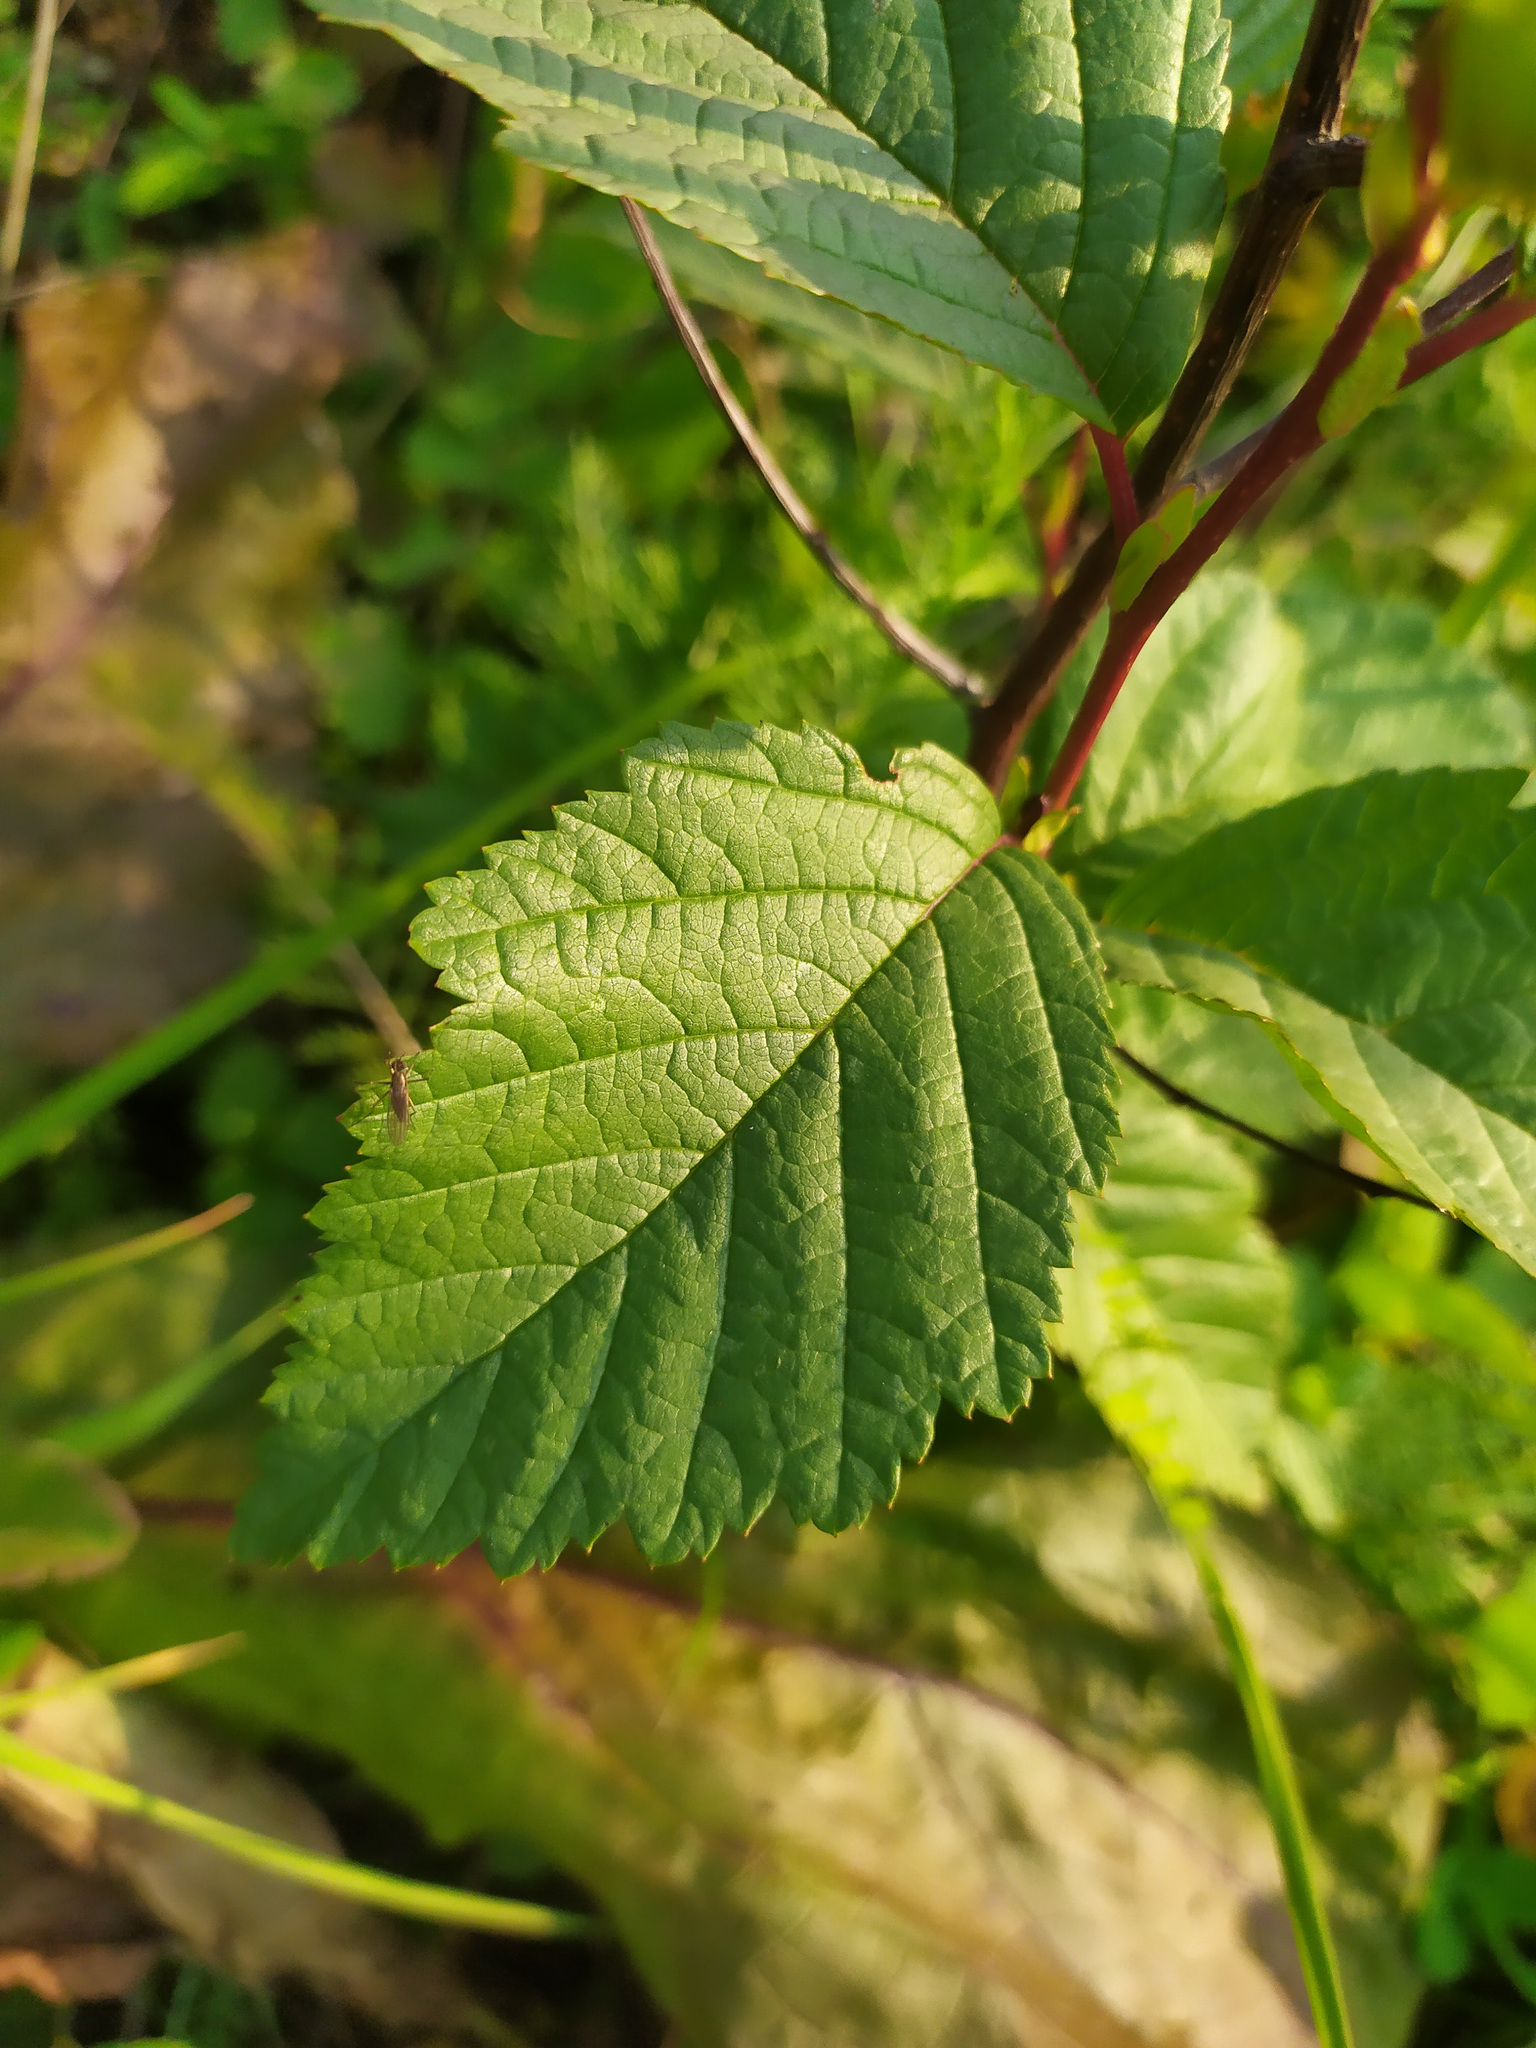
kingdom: Plantae
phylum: Tracheophyta
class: Magnoliopsida
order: Fagales
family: Betulaceae
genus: Alnus
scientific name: Alnus incana
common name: Grey alder
